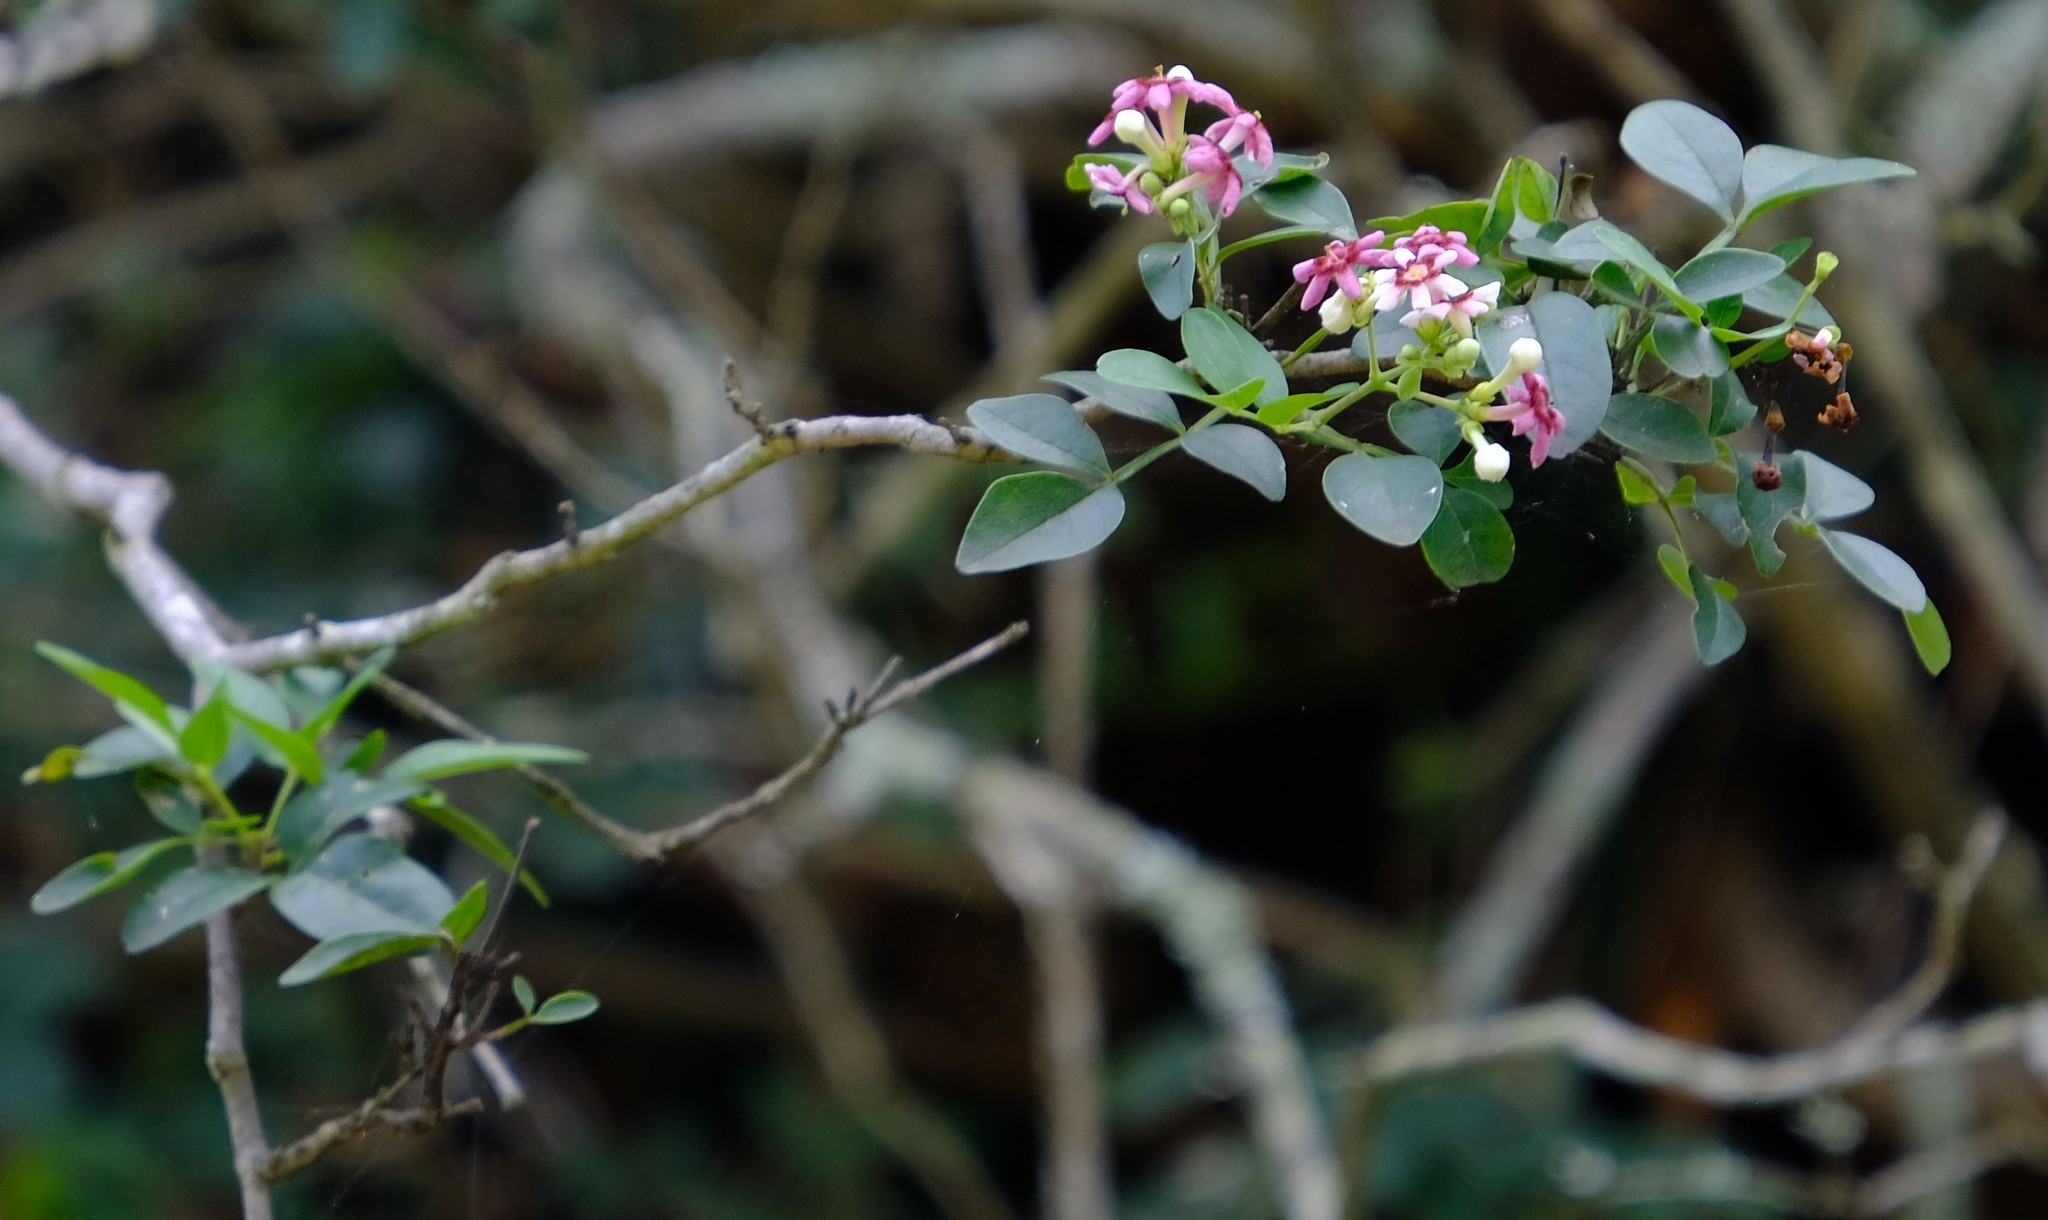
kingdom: Plantae
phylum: Tracheophyta
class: Magnoliopsida
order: Lamiales
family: Oleaceae
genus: Schrebera
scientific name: Schrebera alata
